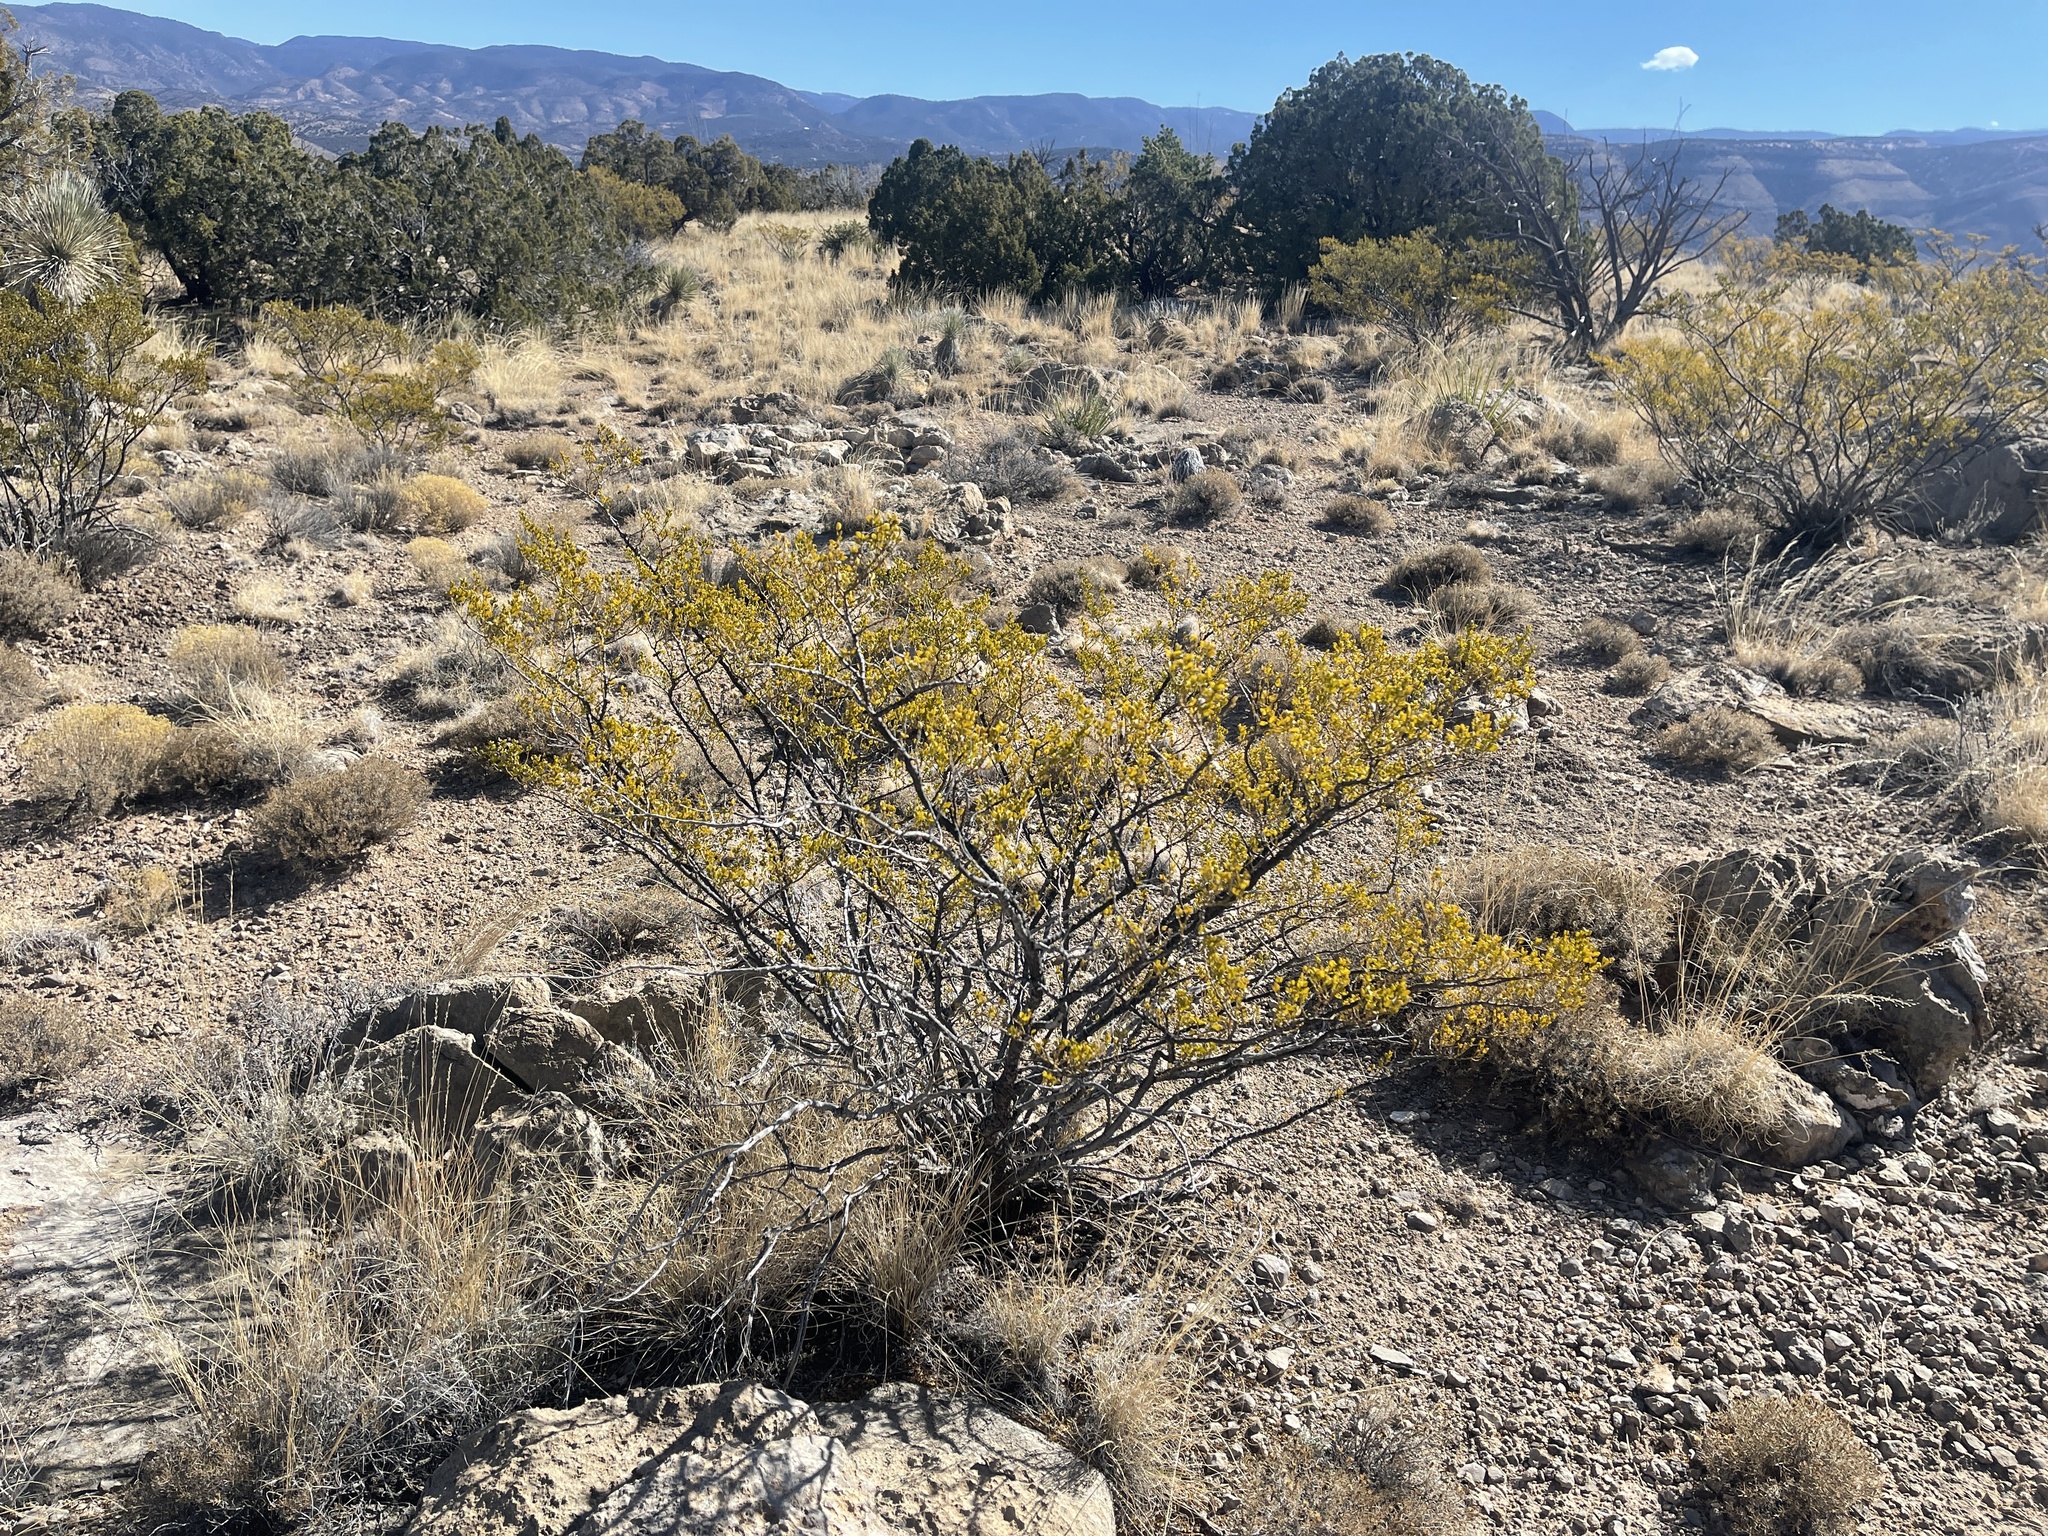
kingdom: Plantae
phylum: Tracheophyta
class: Magnoliopsida
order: Zygophyllales
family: Zygophyllaceae
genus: Larrea
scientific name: Larrea tridentata
